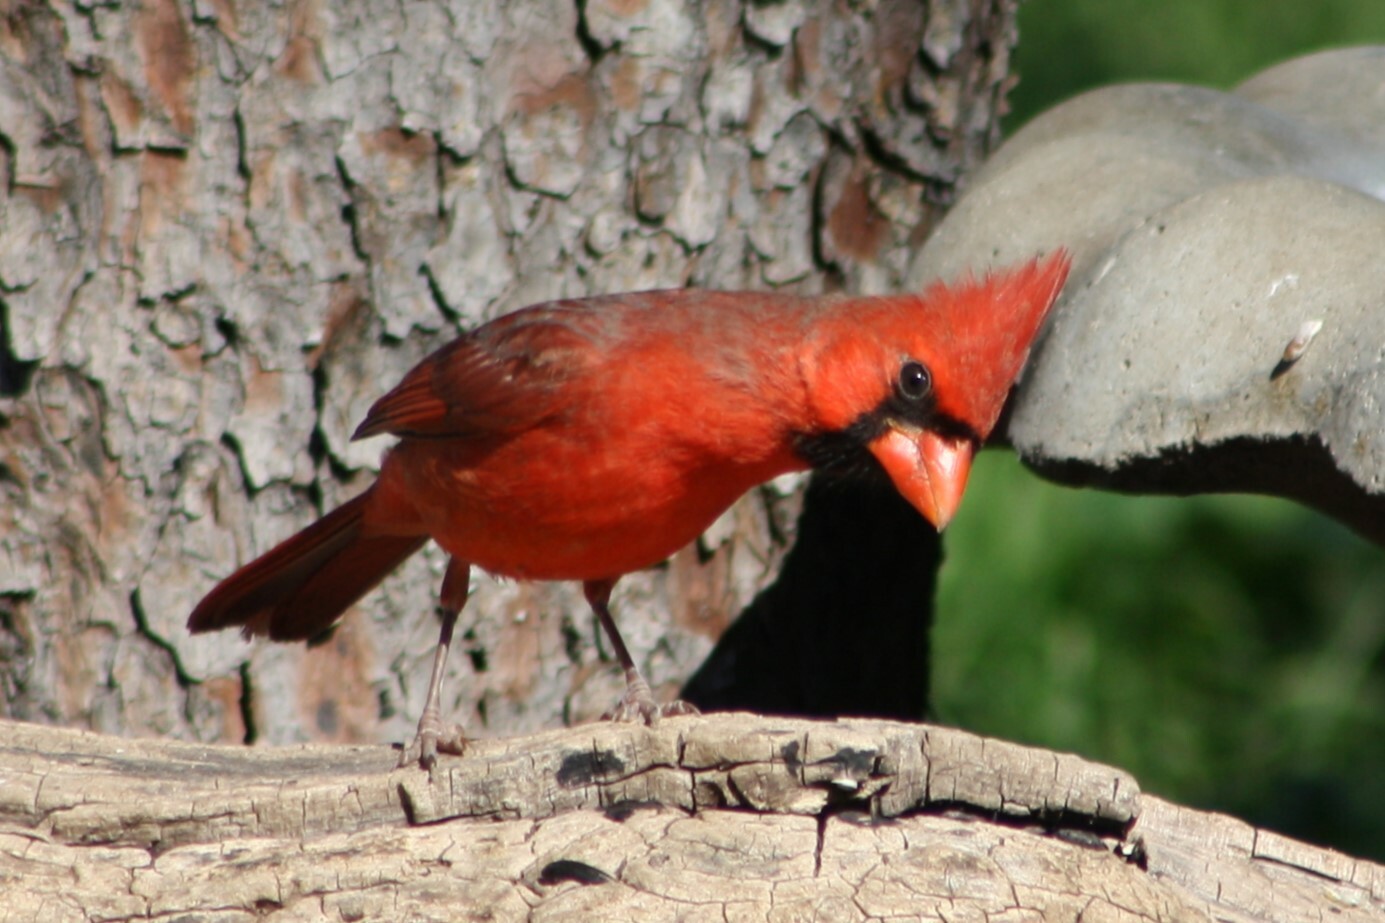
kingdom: Animalia
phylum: Chordata
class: Aves
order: Passeriformes
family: Cardinalidae
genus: Cardinalis
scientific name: Cardinalis cardinalis
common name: Northern cardinal
